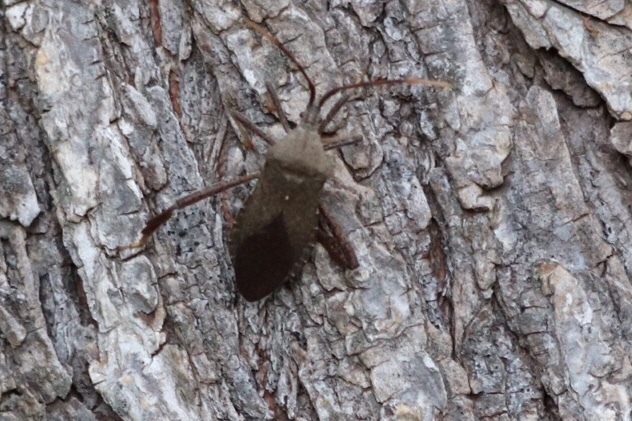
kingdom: Animalia
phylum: Arthropoda
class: Insecta
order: Hemiptera
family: Coreidae
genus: Acanthocephala
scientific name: Acanthocephala terminalis
